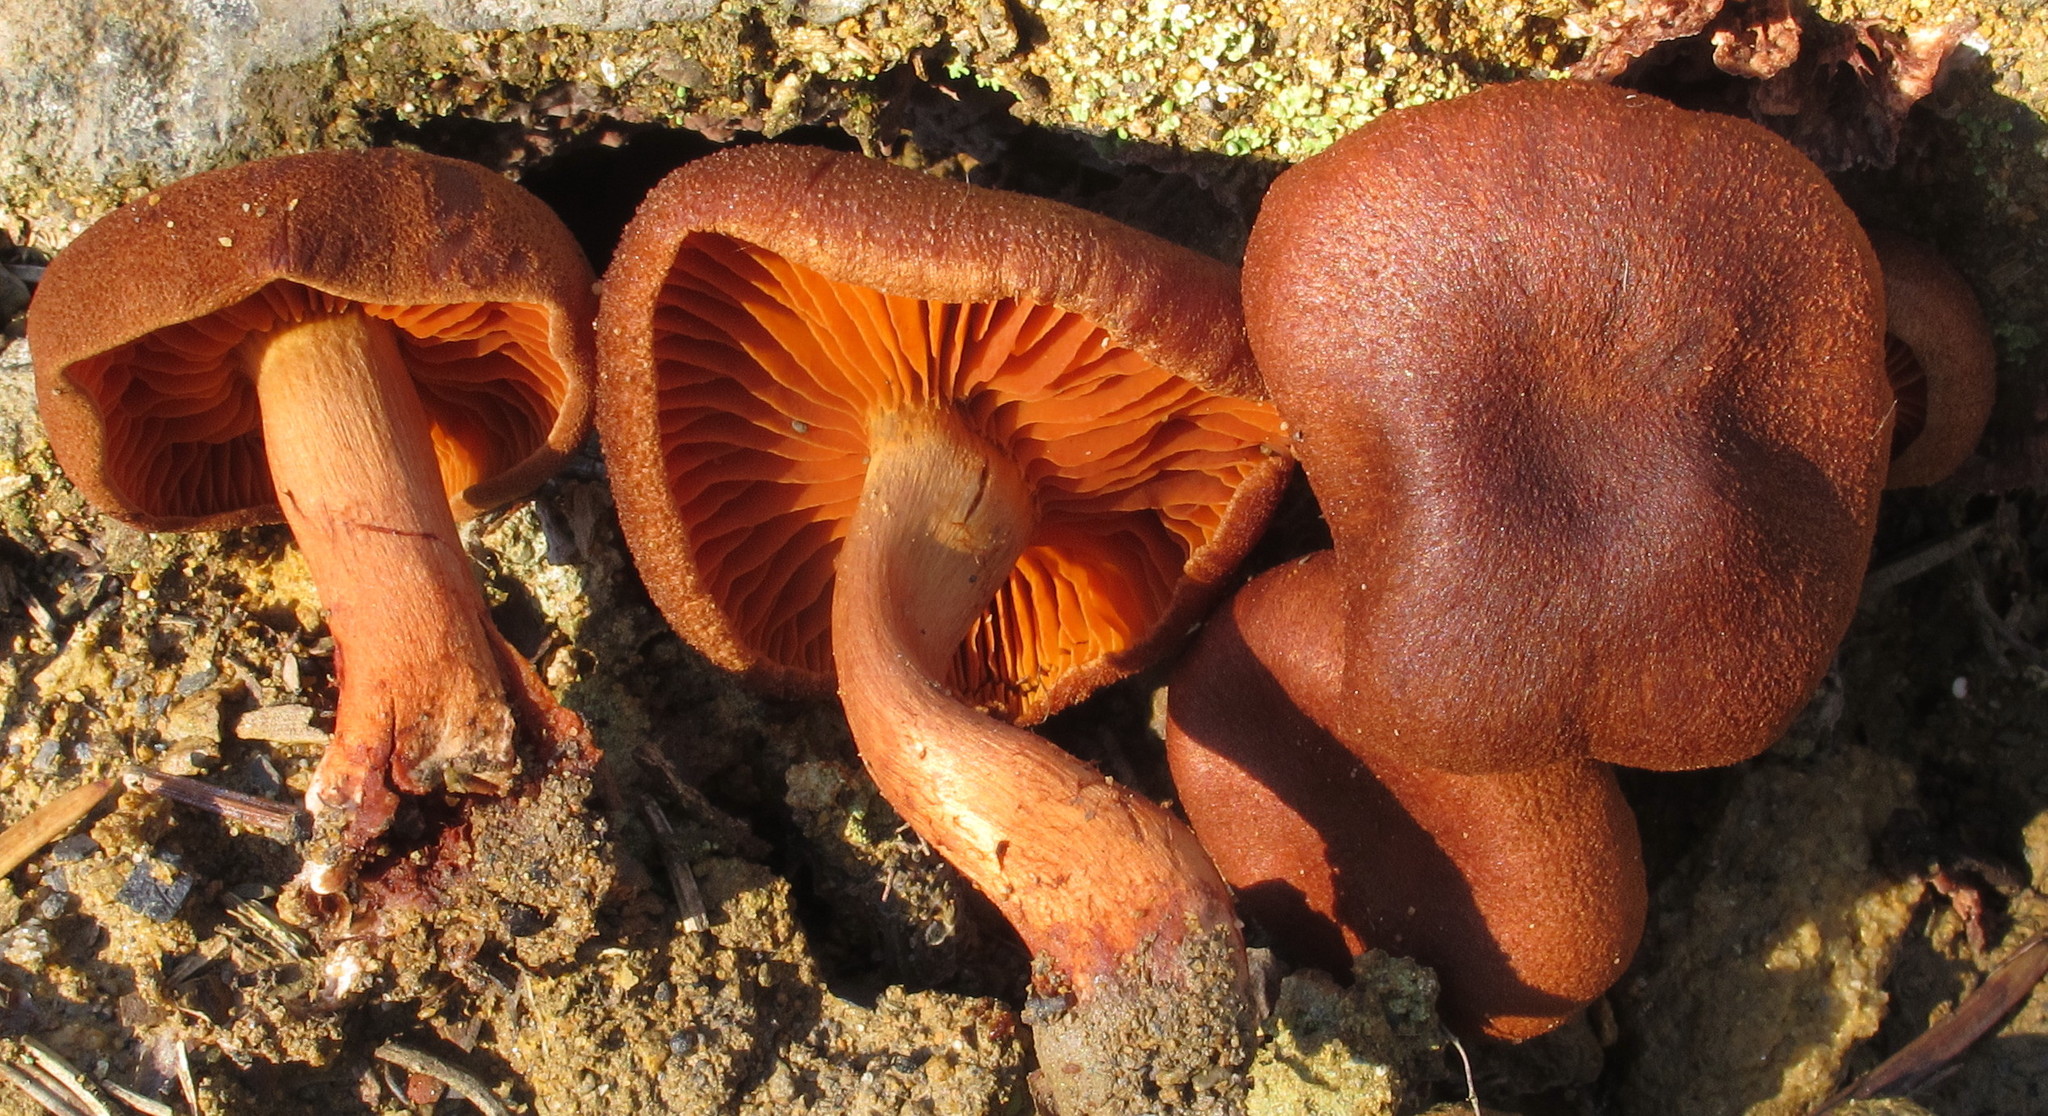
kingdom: Fungi
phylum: Basidiomycota
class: Agaricomycetes
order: Agaricales
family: Cortinariaceae
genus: Cortinarius
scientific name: Cortinarius cinnamomeus
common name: Cinnamon webcap
